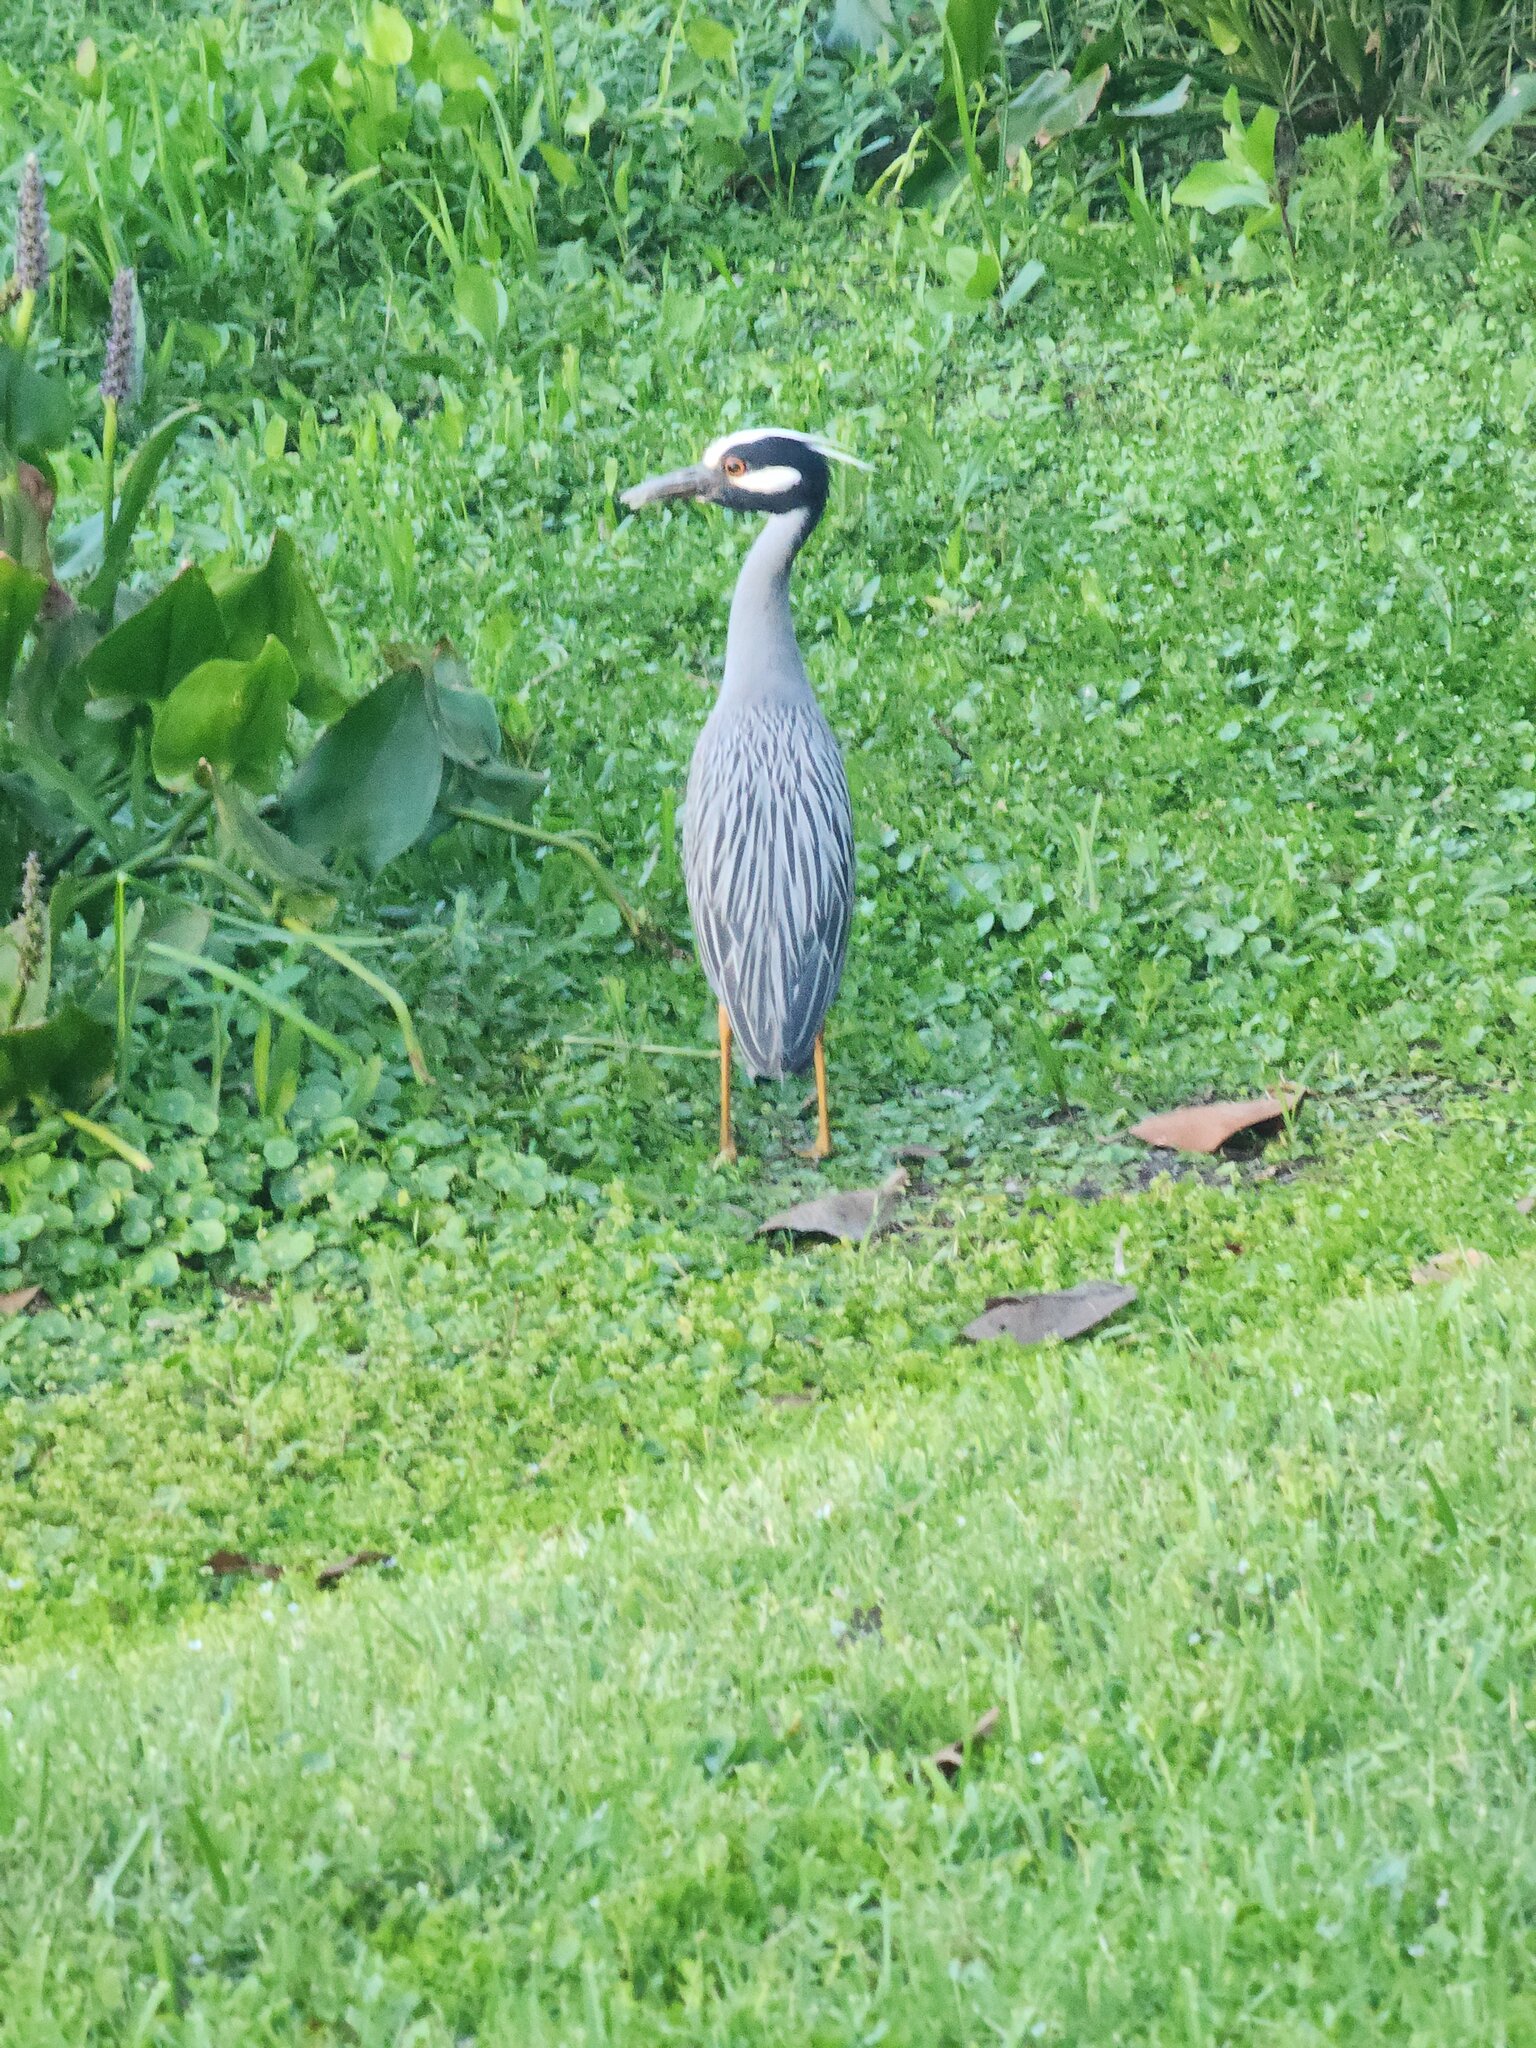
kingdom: Animalia
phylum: Chordata
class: Aves
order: Pelecaniformes
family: Ardeidae
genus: Nyctanassa
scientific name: Nyctanassa violacea
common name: Yellow-crowned night heron
